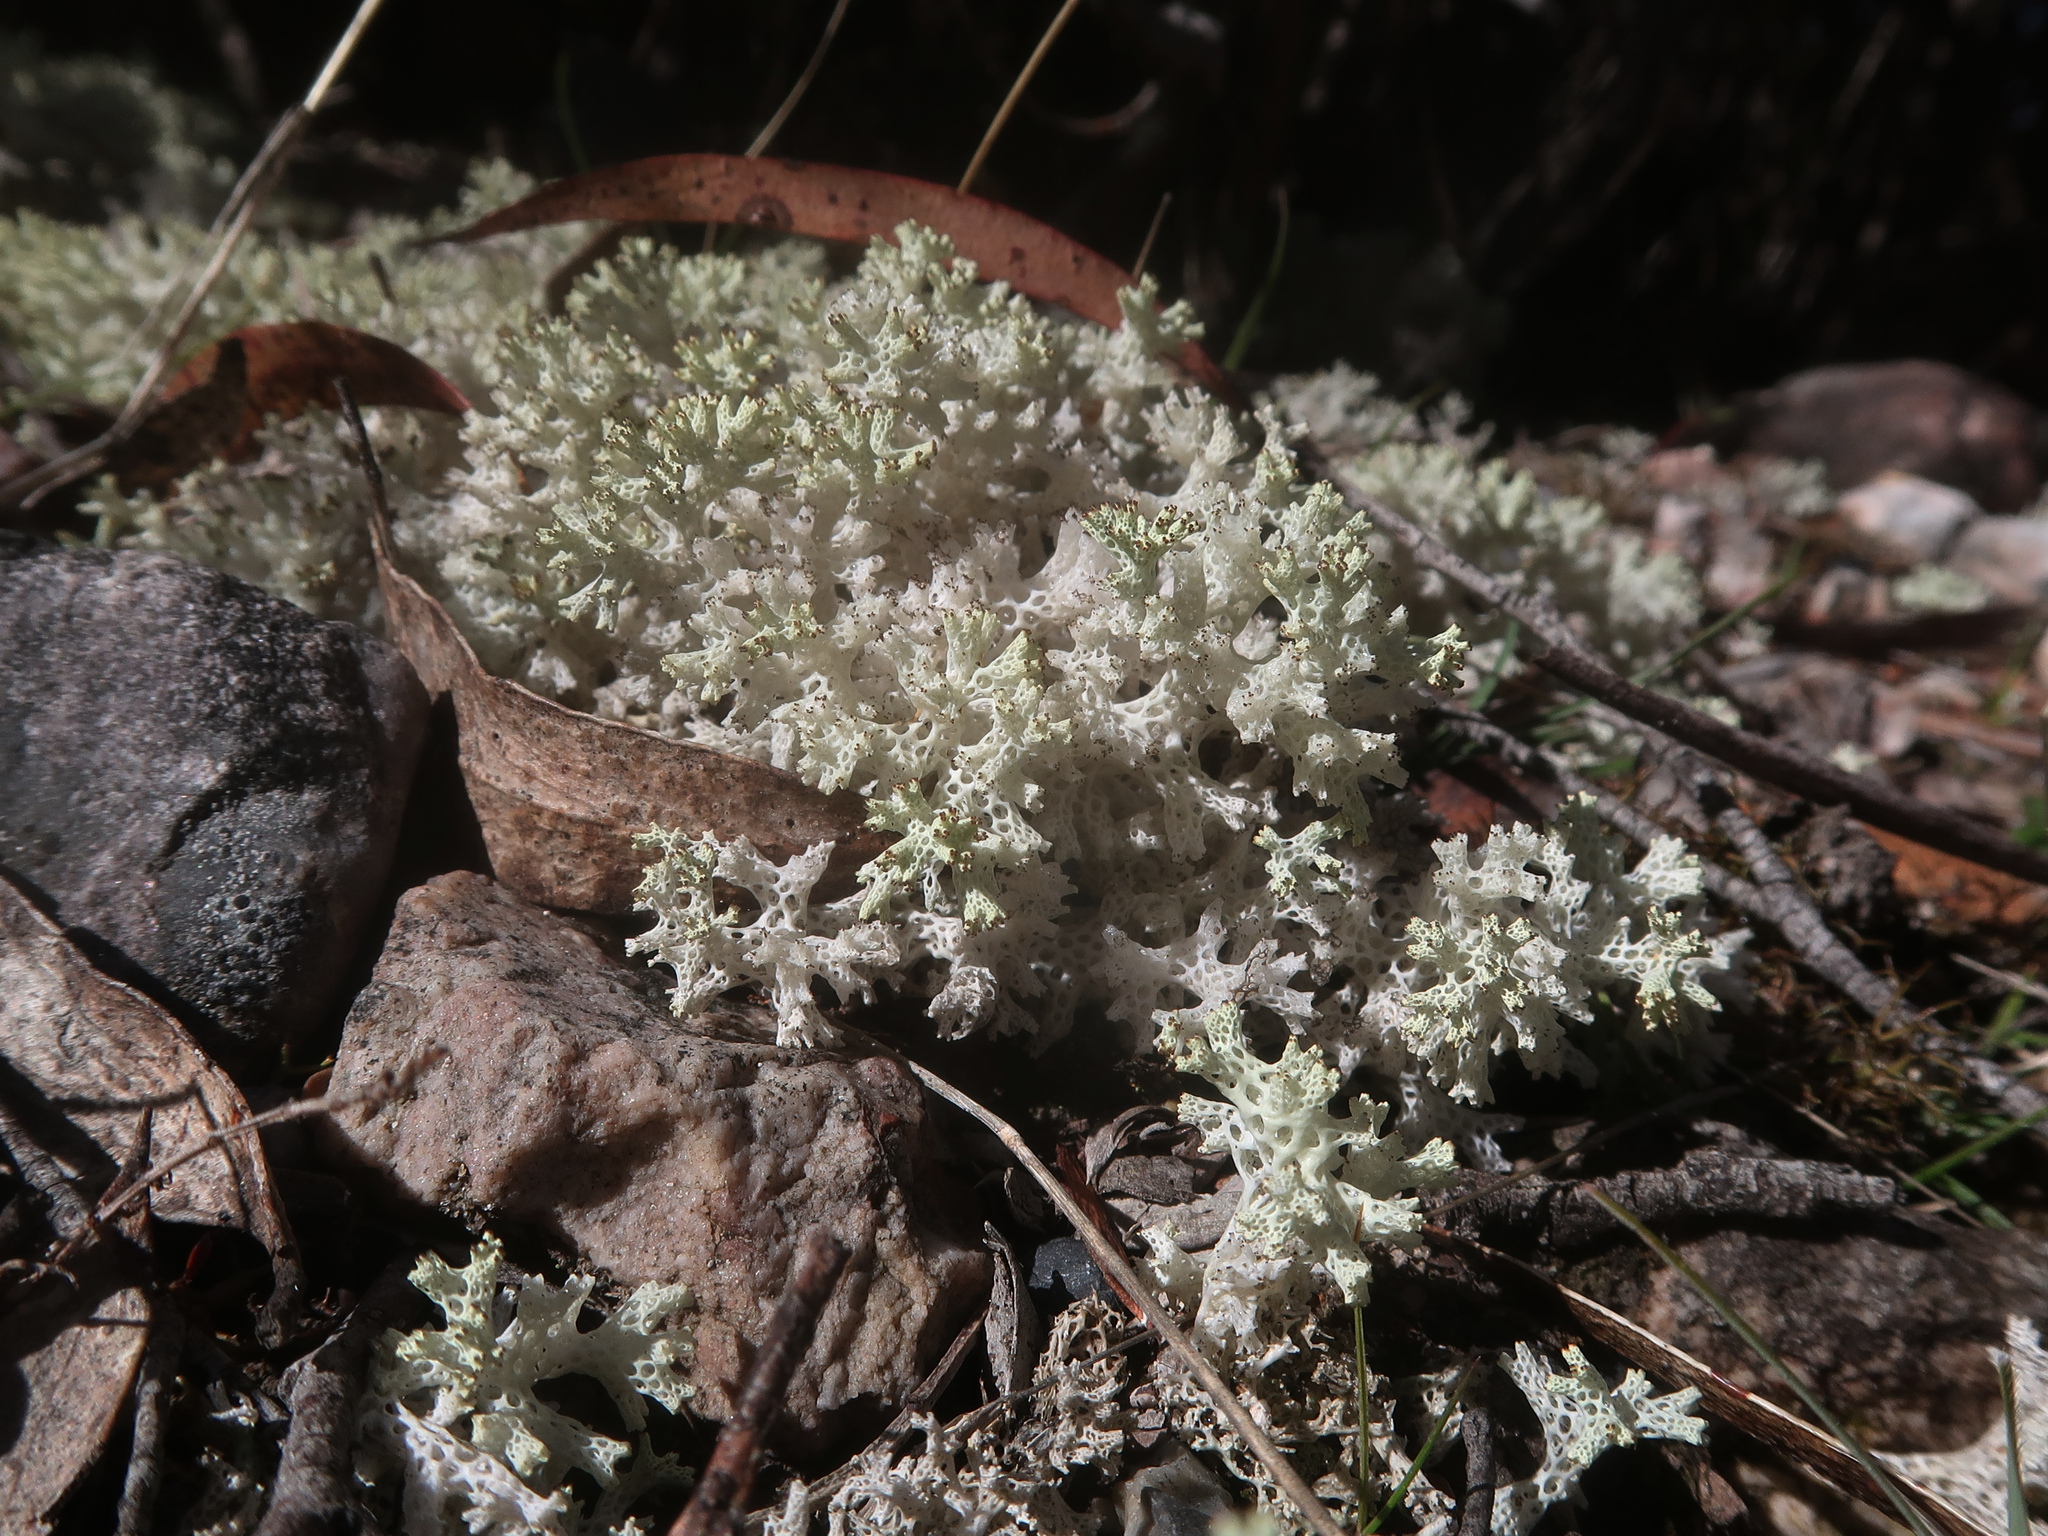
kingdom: Fungi
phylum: Ascomycota
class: Lecanoromycetes
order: Lecanorales
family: Cladoniaceae
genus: Pulchrocladia
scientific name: Pulchrocladia retipora
